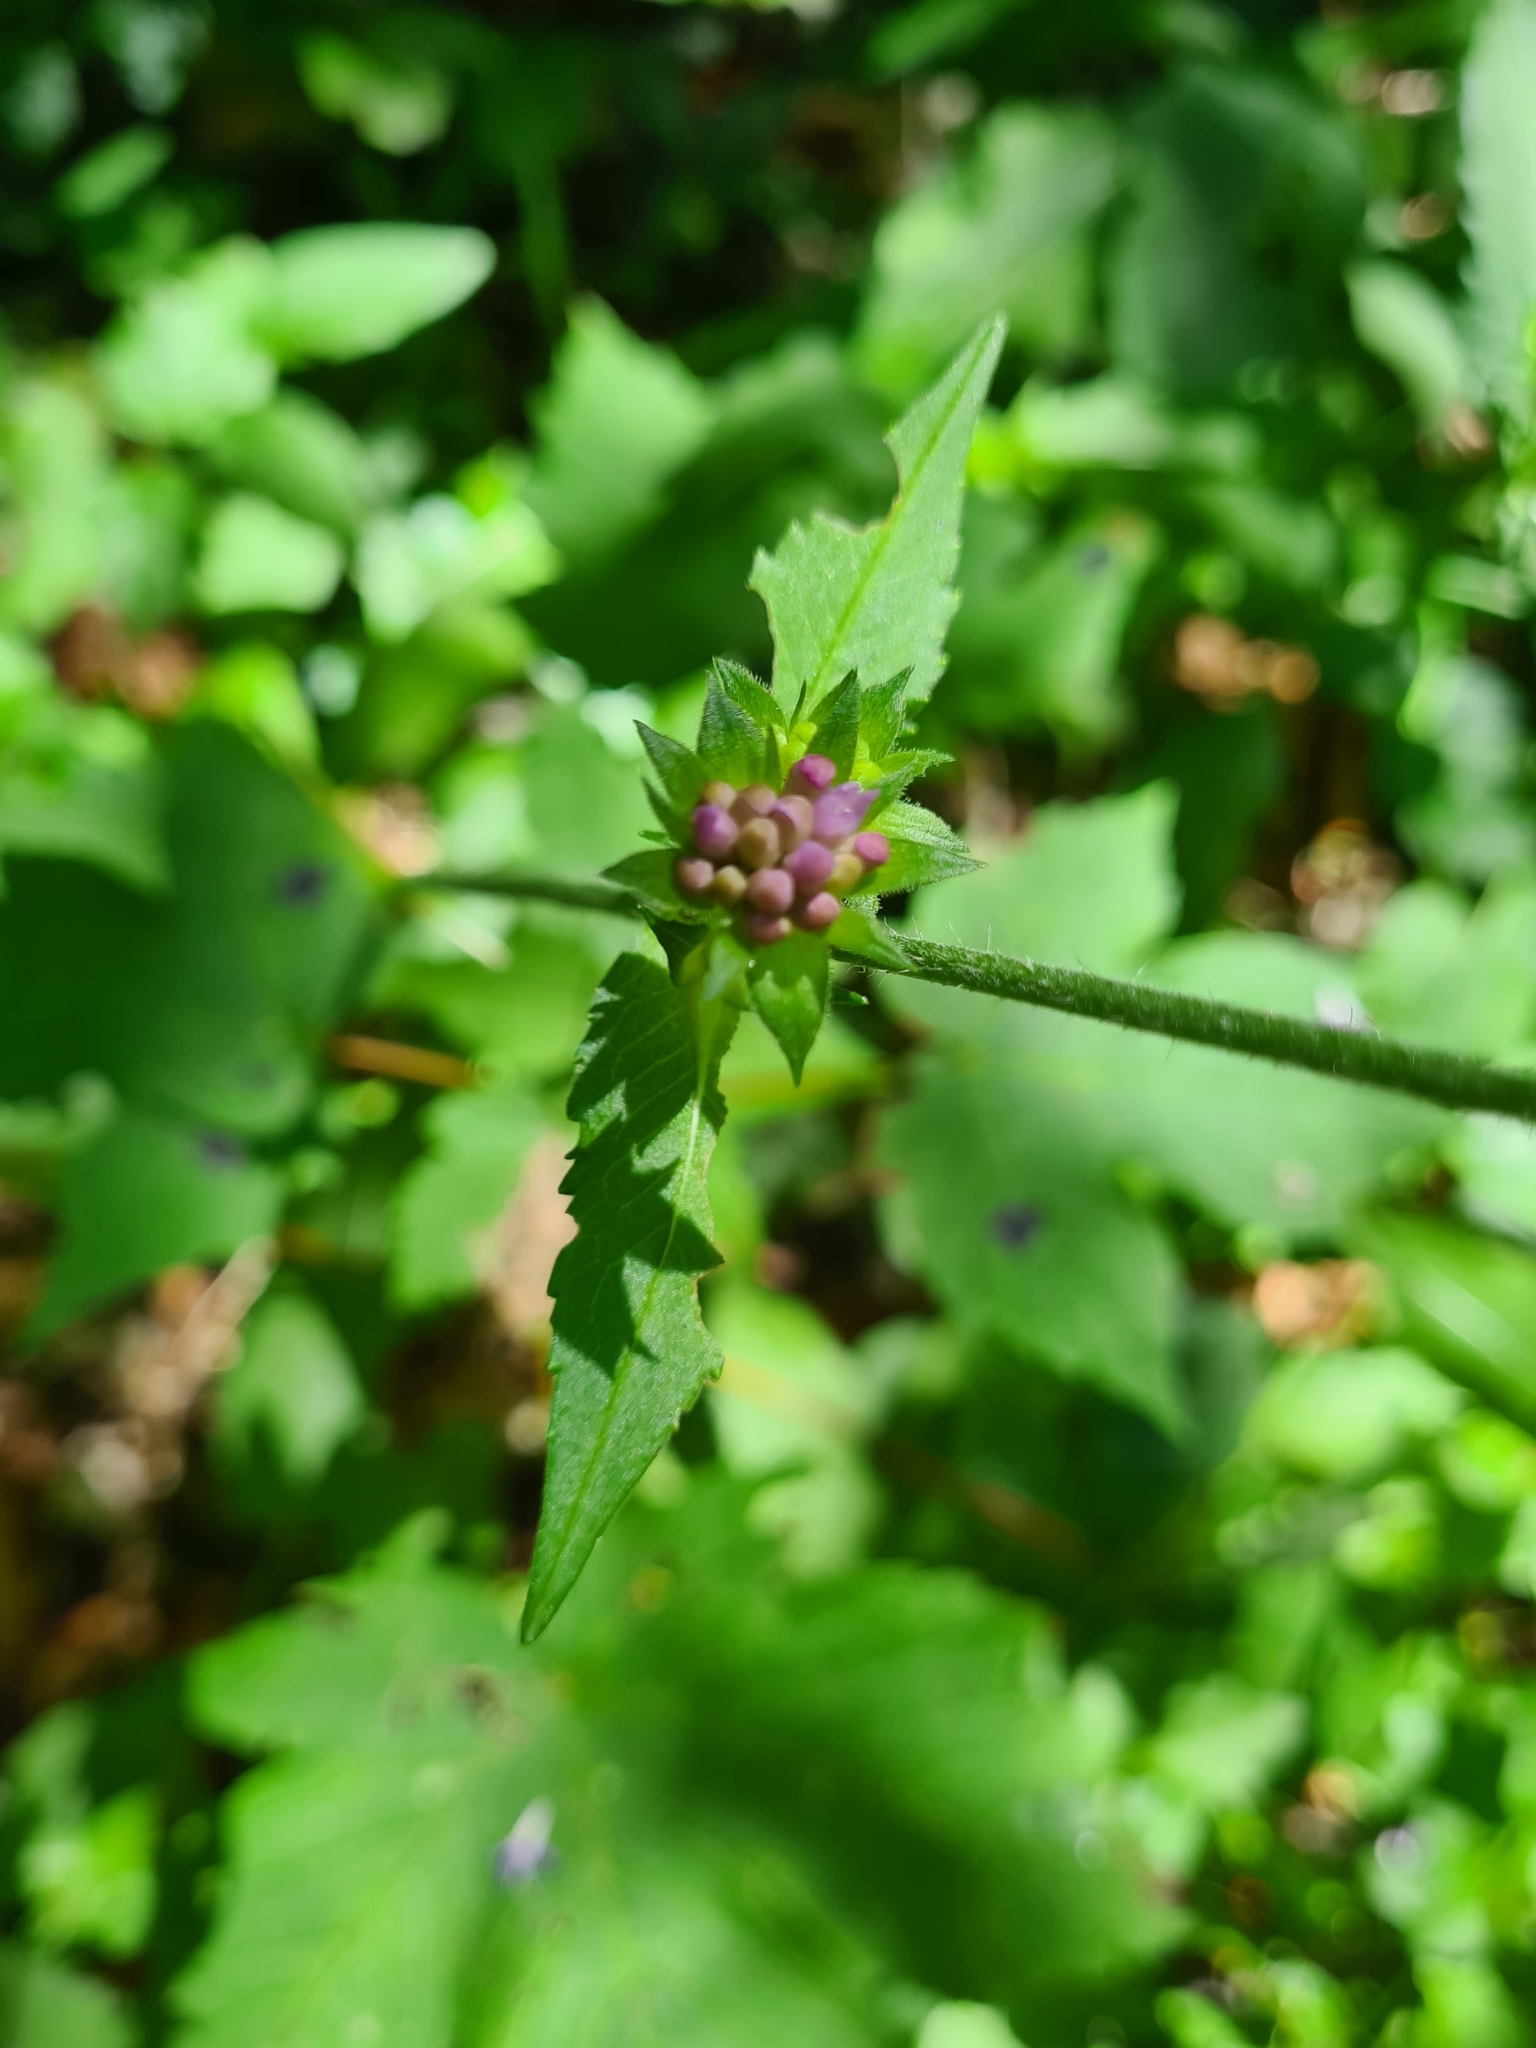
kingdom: Plantae
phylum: Tracheophyta
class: Magnoliopsida
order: Dipsacales
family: Caprifoliaceae
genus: Knautia
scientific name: Knautia dipsacifolia
